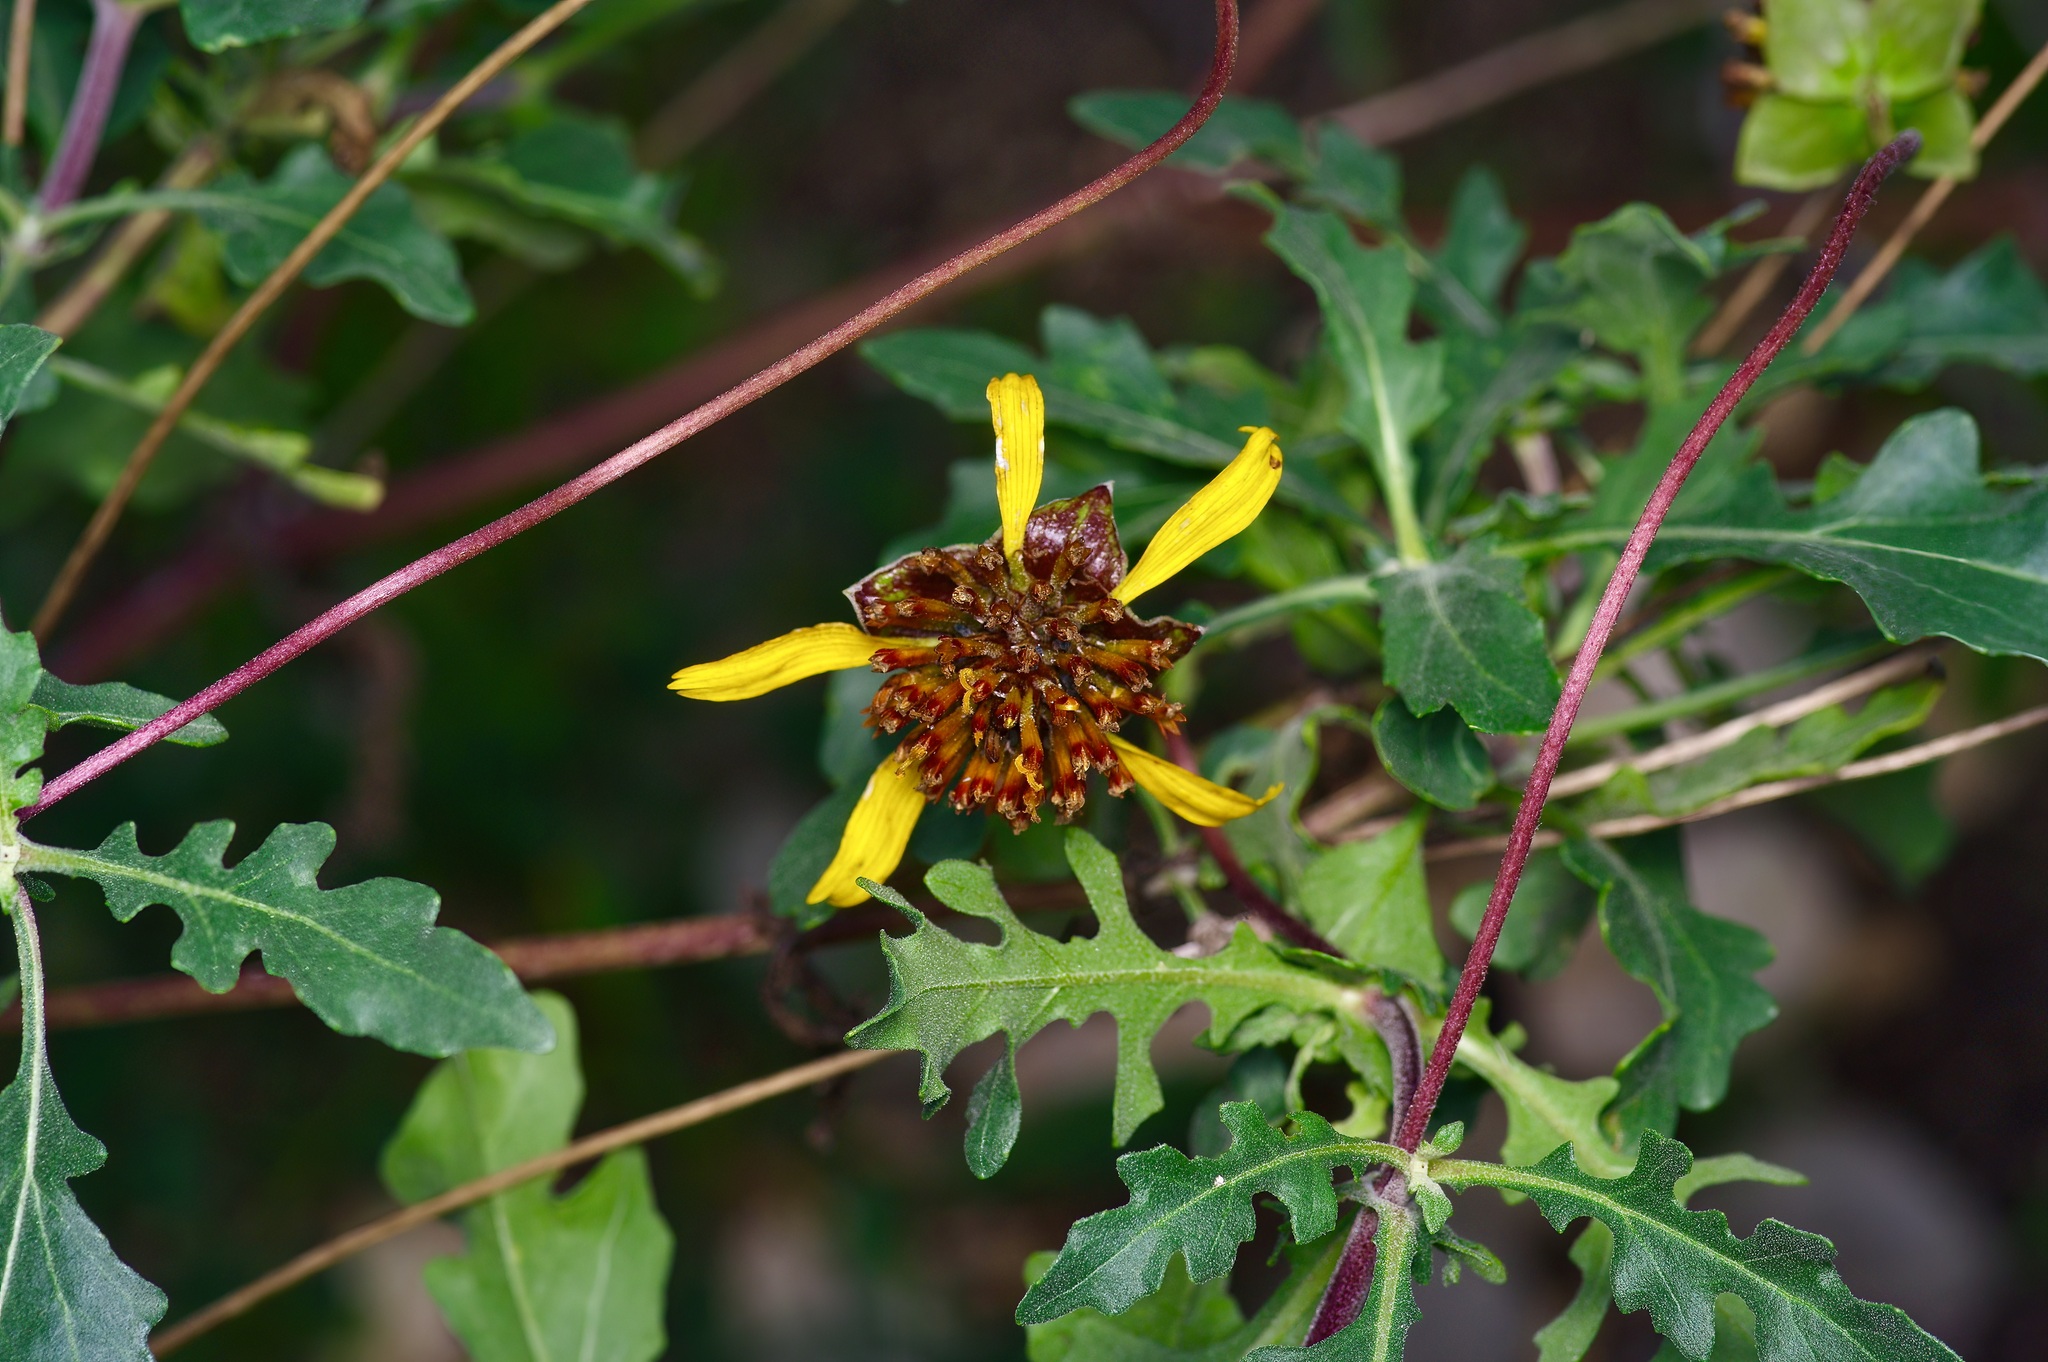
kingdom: Plantae
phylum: Tracheophyta
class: Magnoliopsida
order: Asterales
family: Asteraceae
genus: Tetragonotheca
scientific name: Tetragonotheca texana
